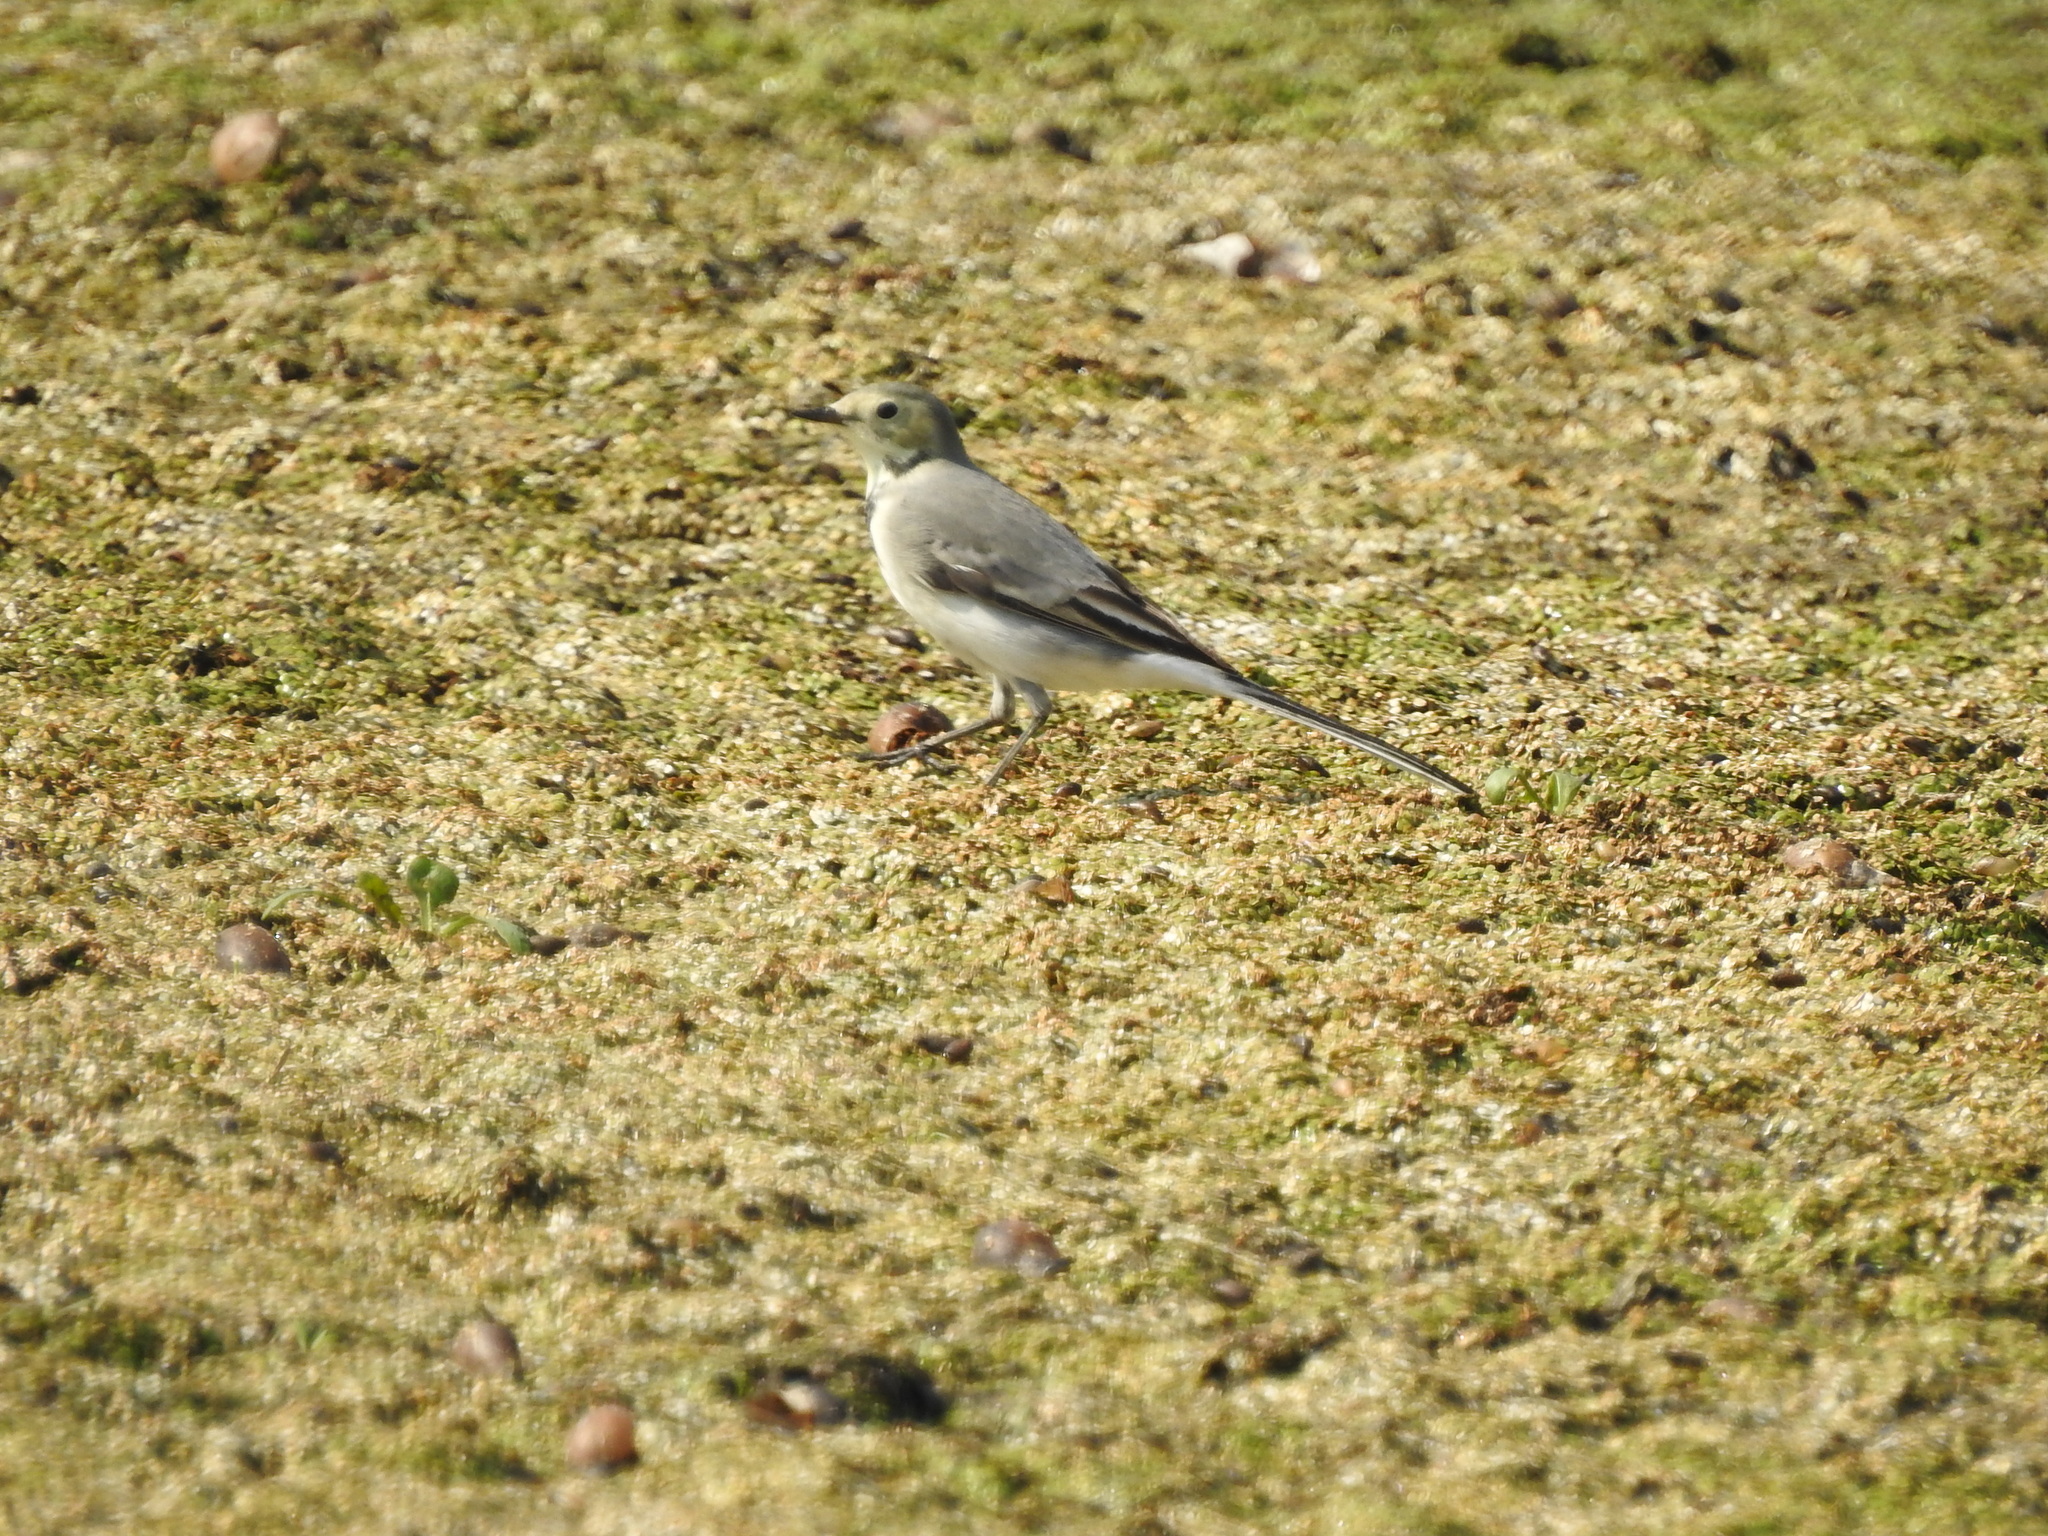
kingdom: Animalia
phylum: Chordata
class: Aves
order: Passeriformes
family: Motacillidae
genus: Motacilla
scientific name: Motacilla alba
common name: White wagtail
